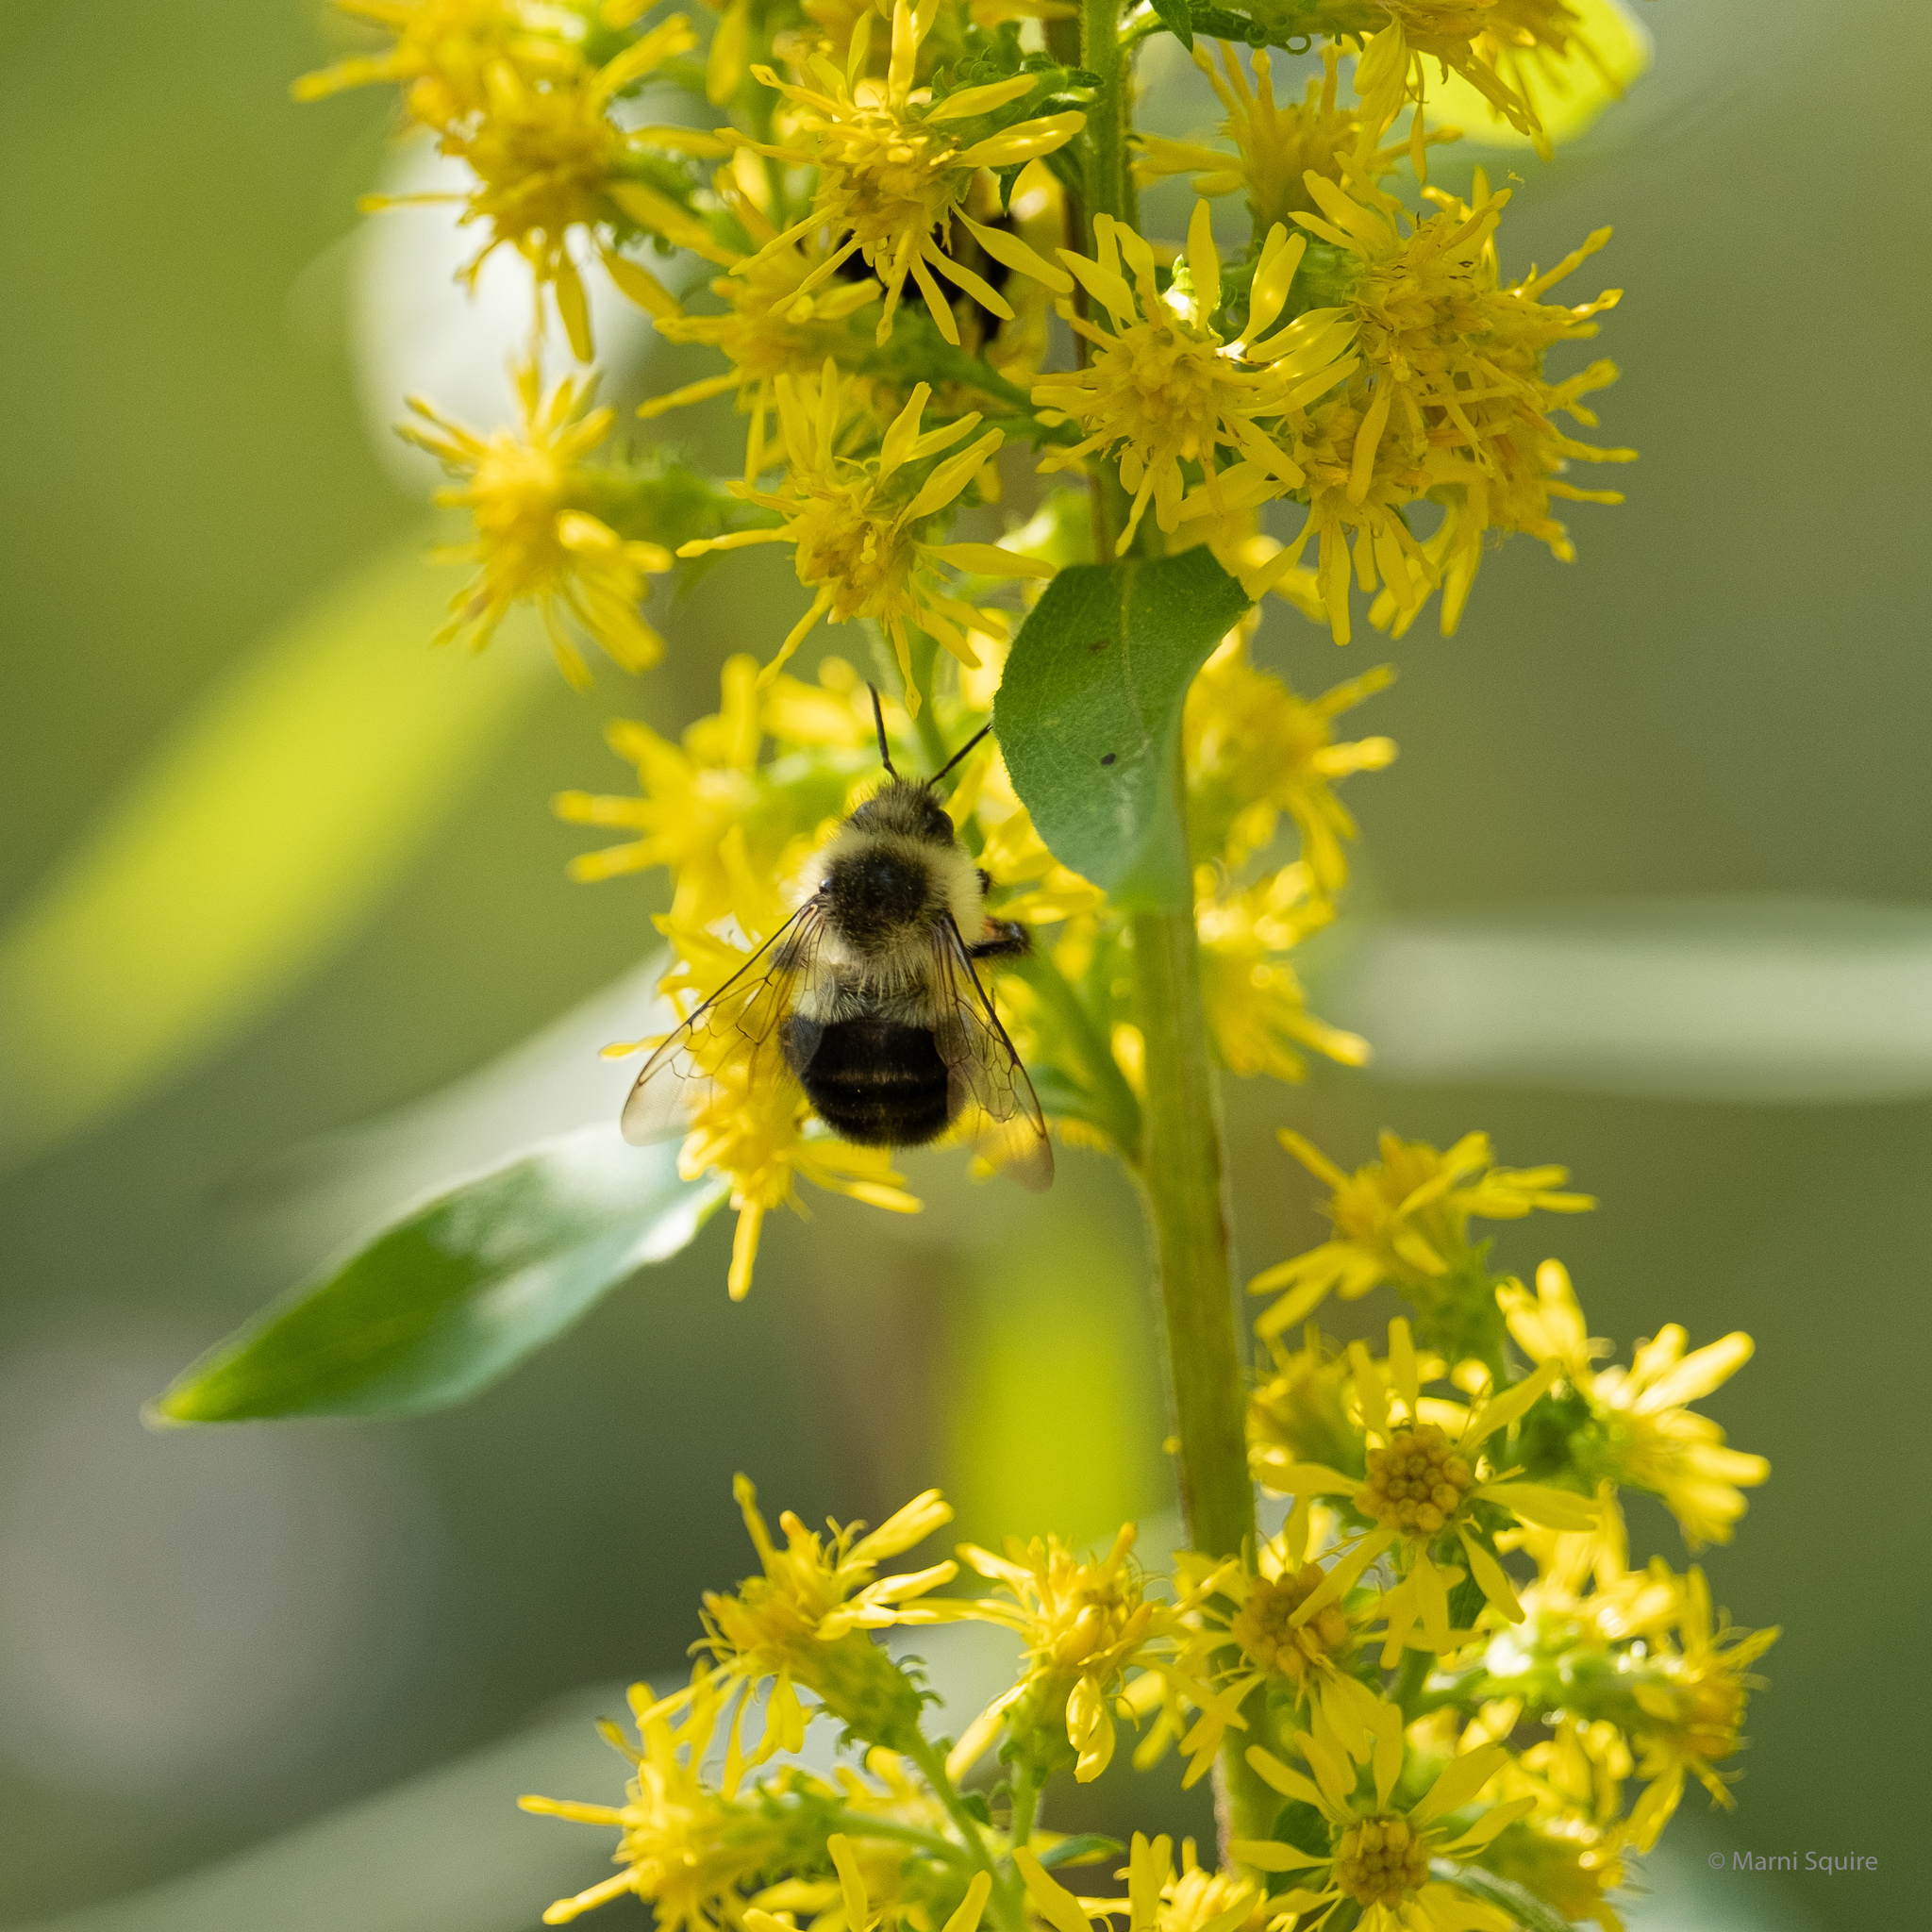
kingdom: Animalia
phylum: Arthropoda
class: Insecta
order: Hymenoptera
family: Apidae
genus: Bombus
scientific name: Bombus impatiens
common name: Common eastern bumble bee
